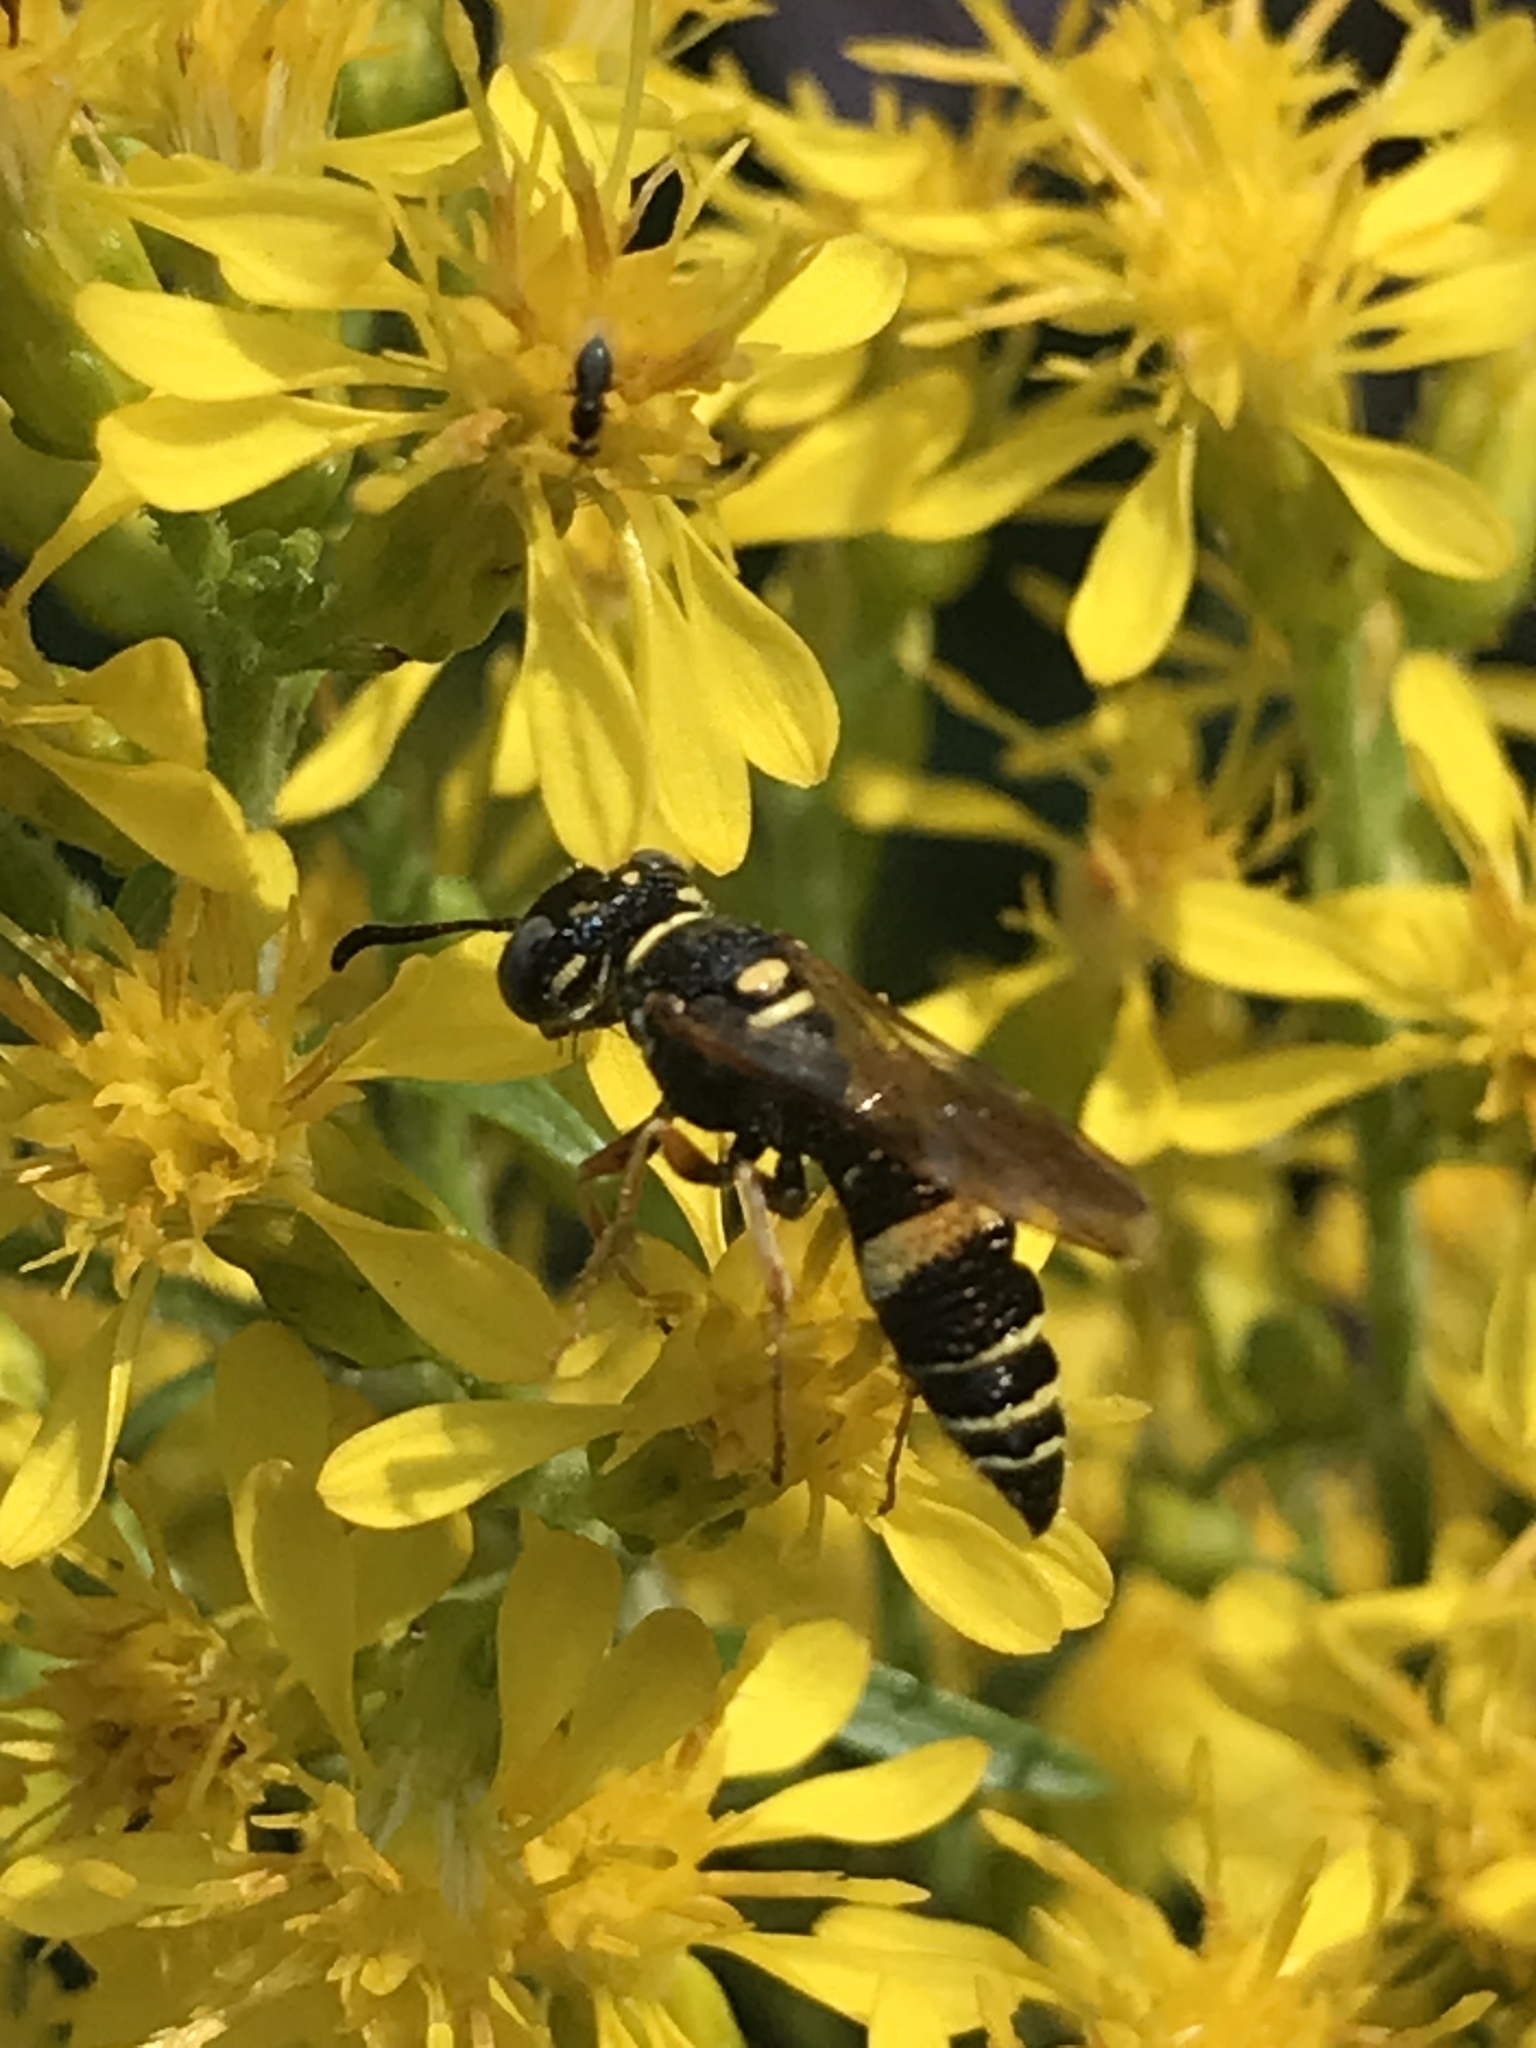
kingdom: Animalia
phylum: Arthropoda
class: Insecta
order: Hymenoptera
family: Crabronidae
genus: Philanthus
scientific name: Philanthus gibbosus
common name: Humped beewolf
